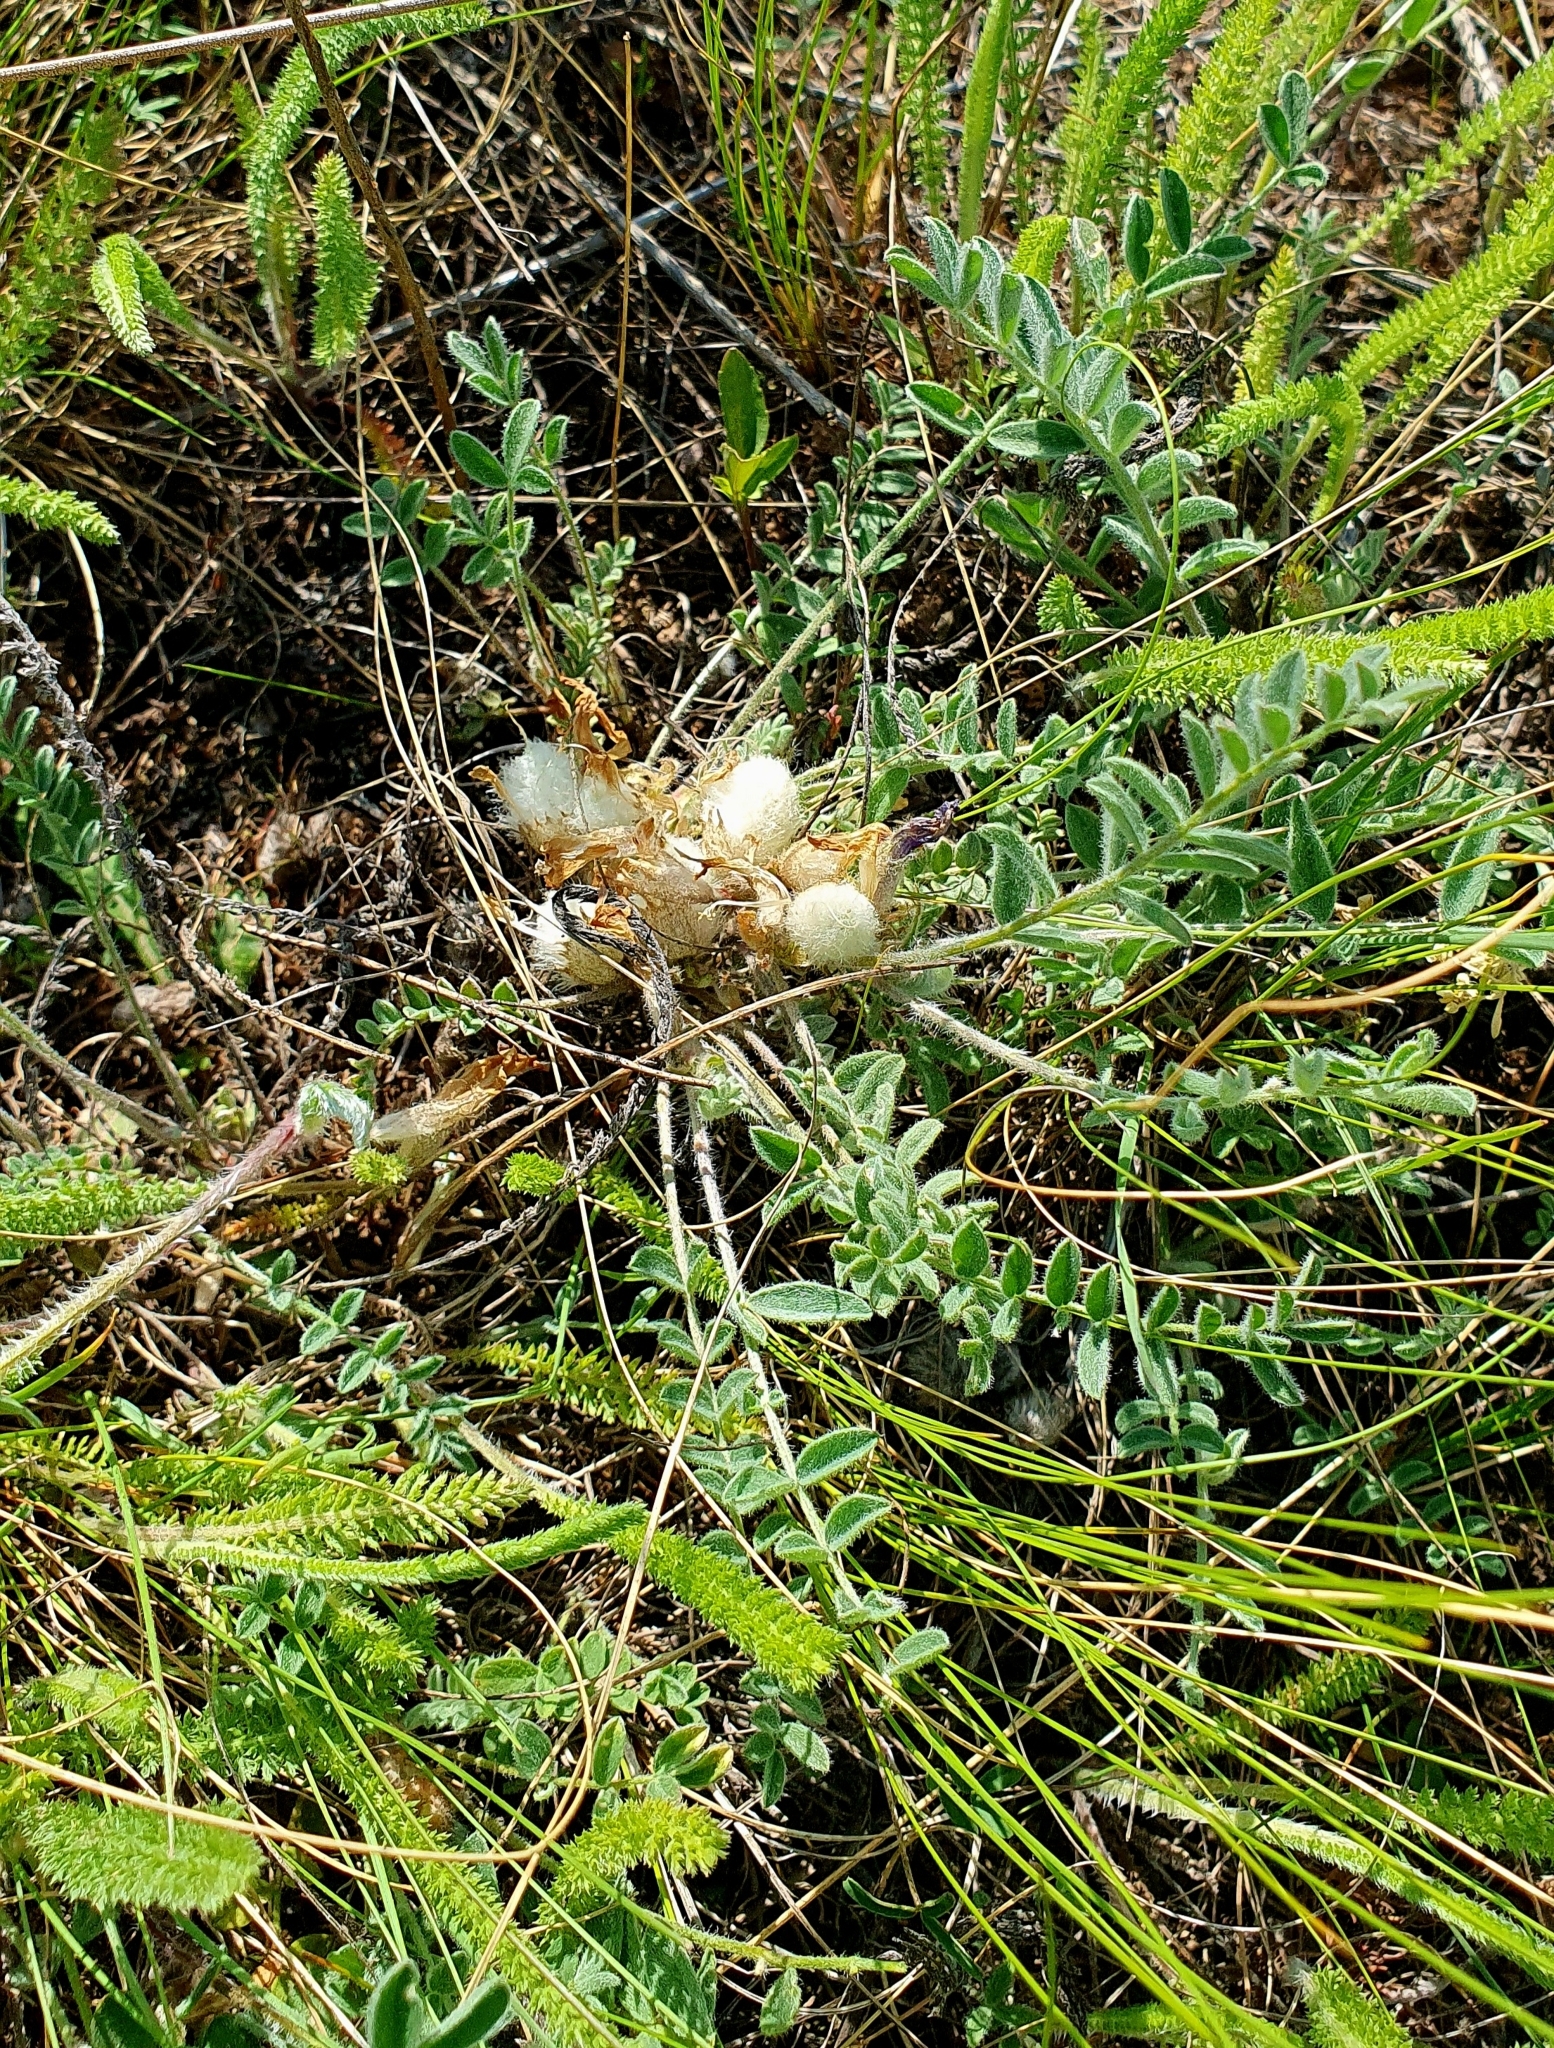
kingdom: Plantae
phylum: Tracheophyta
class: Magnoliopsida
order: Fabales
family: Fabaceae
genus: Astragalus
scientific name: Astragalus testiculatus
